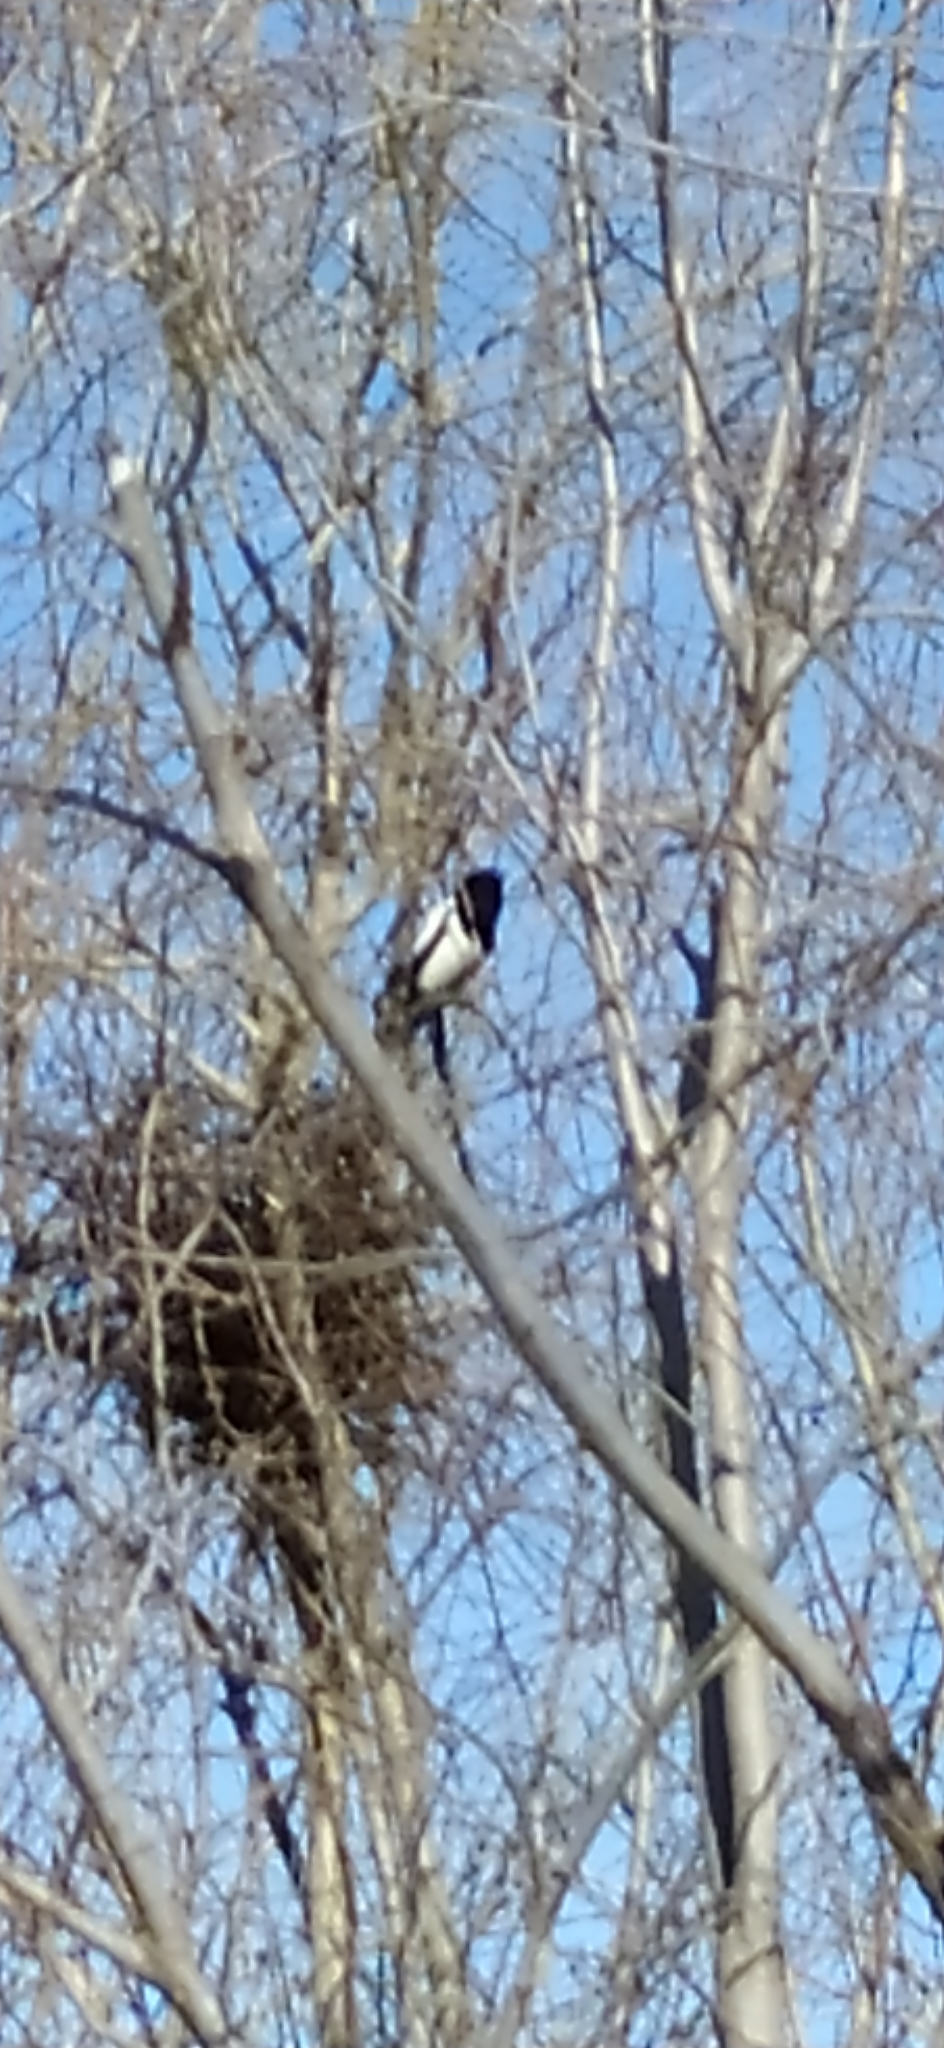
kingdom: Animalia
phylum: Chordata
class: Aves
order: Passeriformes
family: Corvidae
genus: Pica
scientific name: Pica pica
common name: Eurasian magpie
